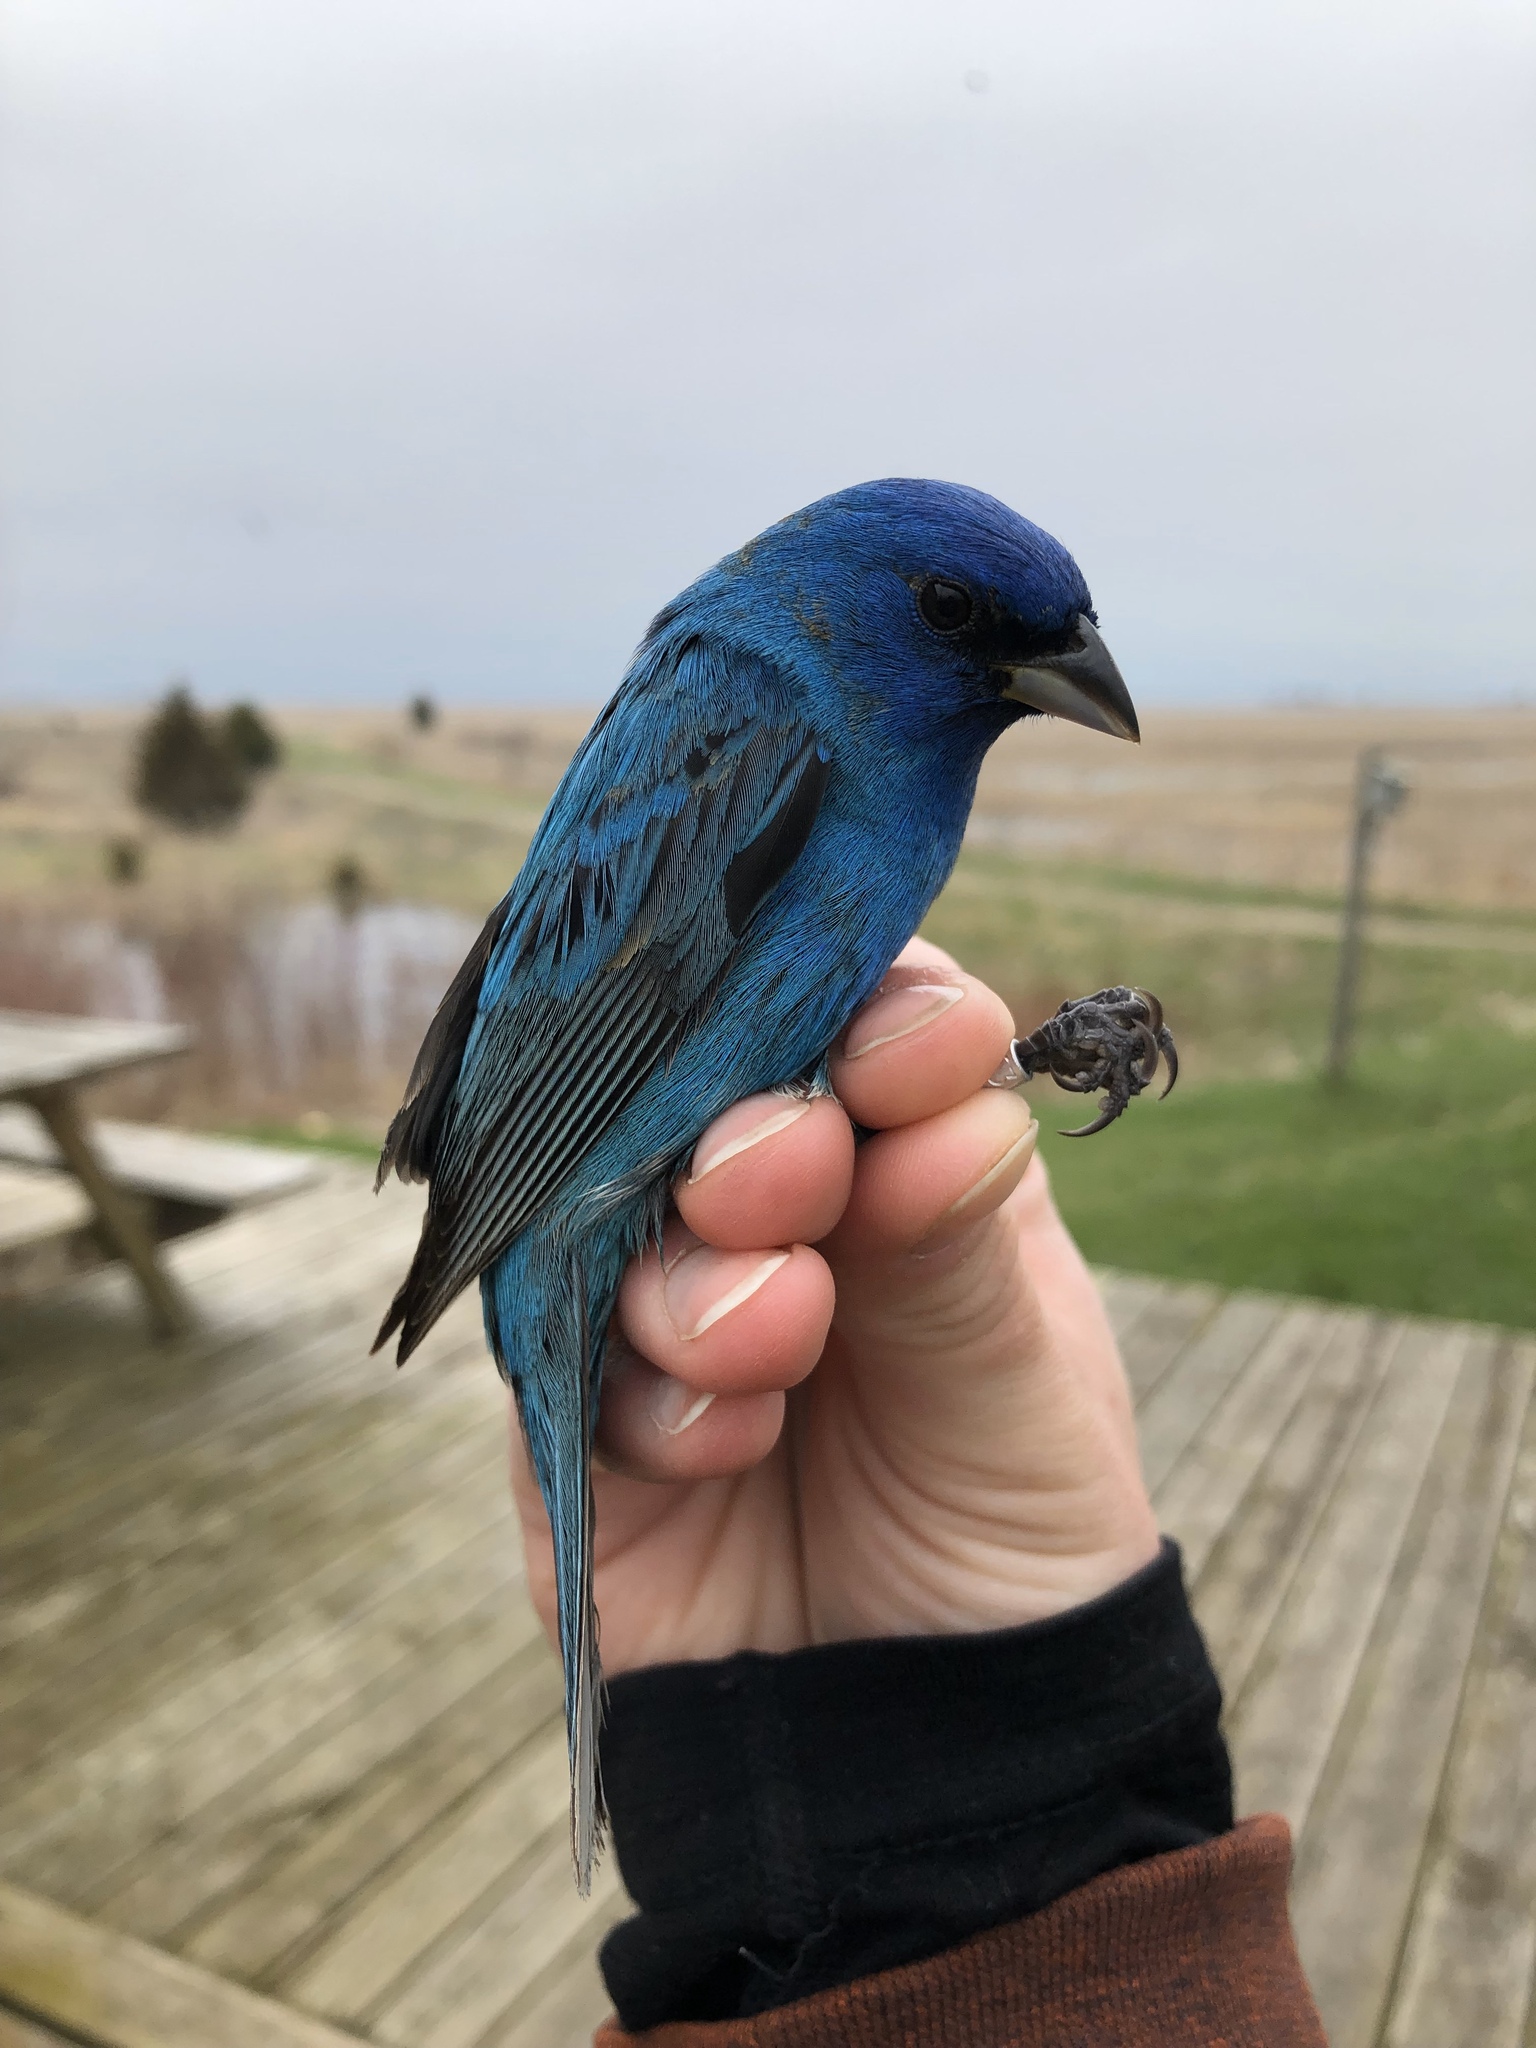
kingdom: Animalia
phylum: Chordata
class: Aves
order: Passeriformes
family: Cardinalidae
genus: Passerina
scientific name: Passerina cyanea
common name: Indigo bunting
